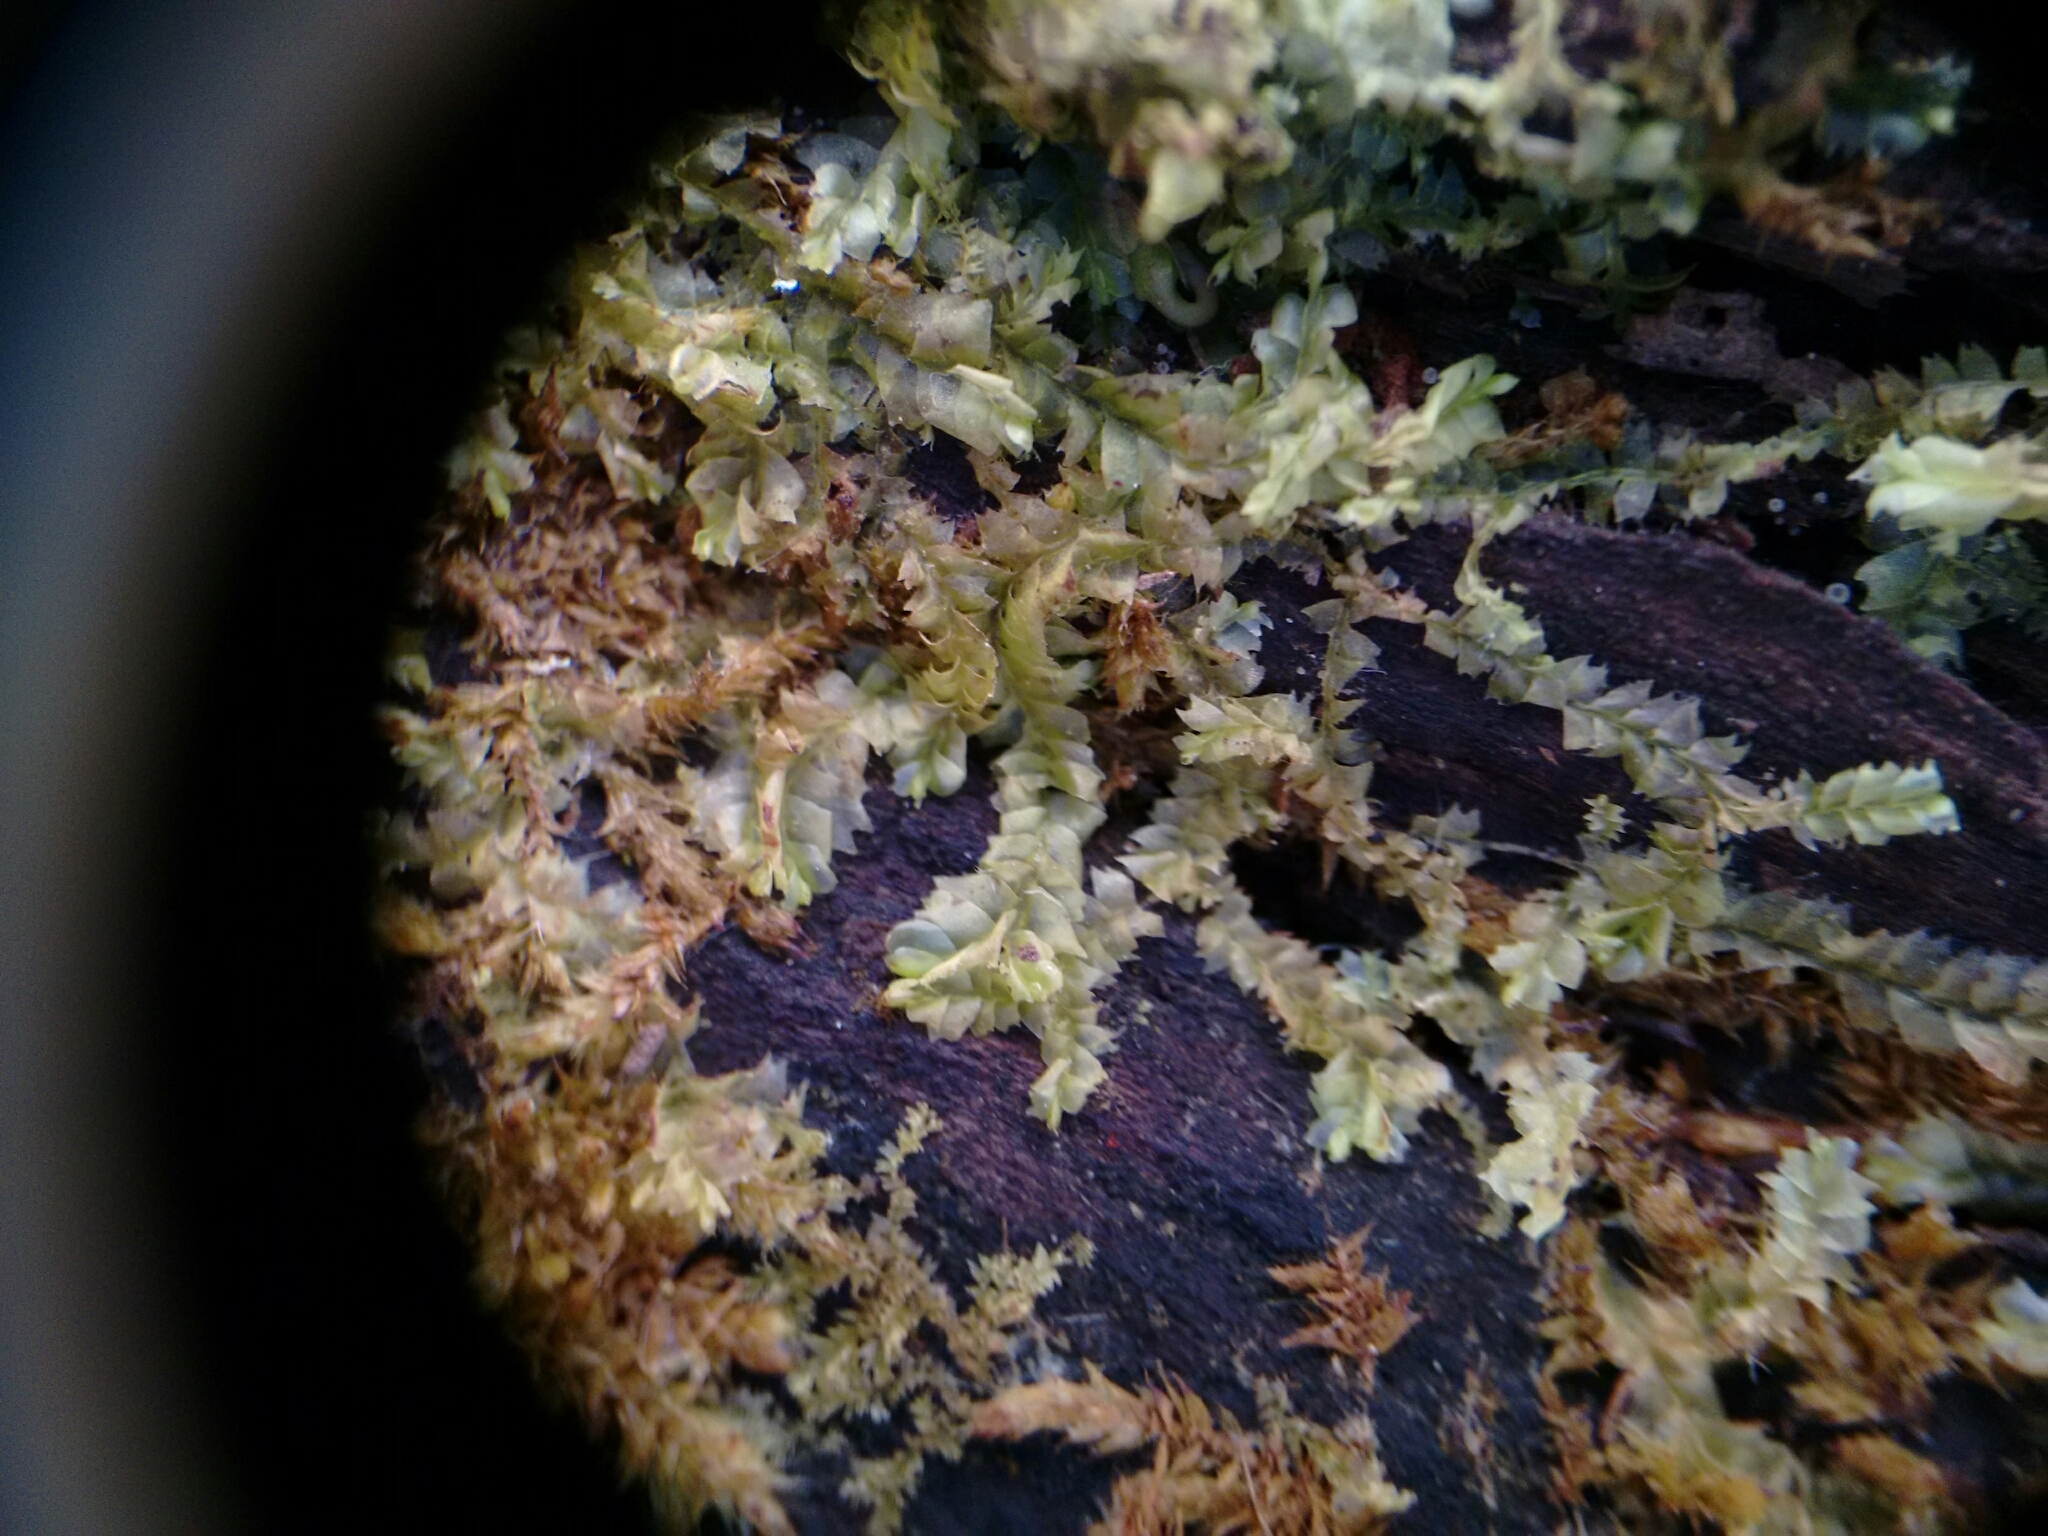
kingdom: Plantae
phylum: Marchantiophyta
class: Jungermanniopsida
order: Jungermanniales
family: Lophocoleaceae
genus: Lophocolea
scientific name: Lophocolea heterophylla
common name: Variable-leaved crestwort
